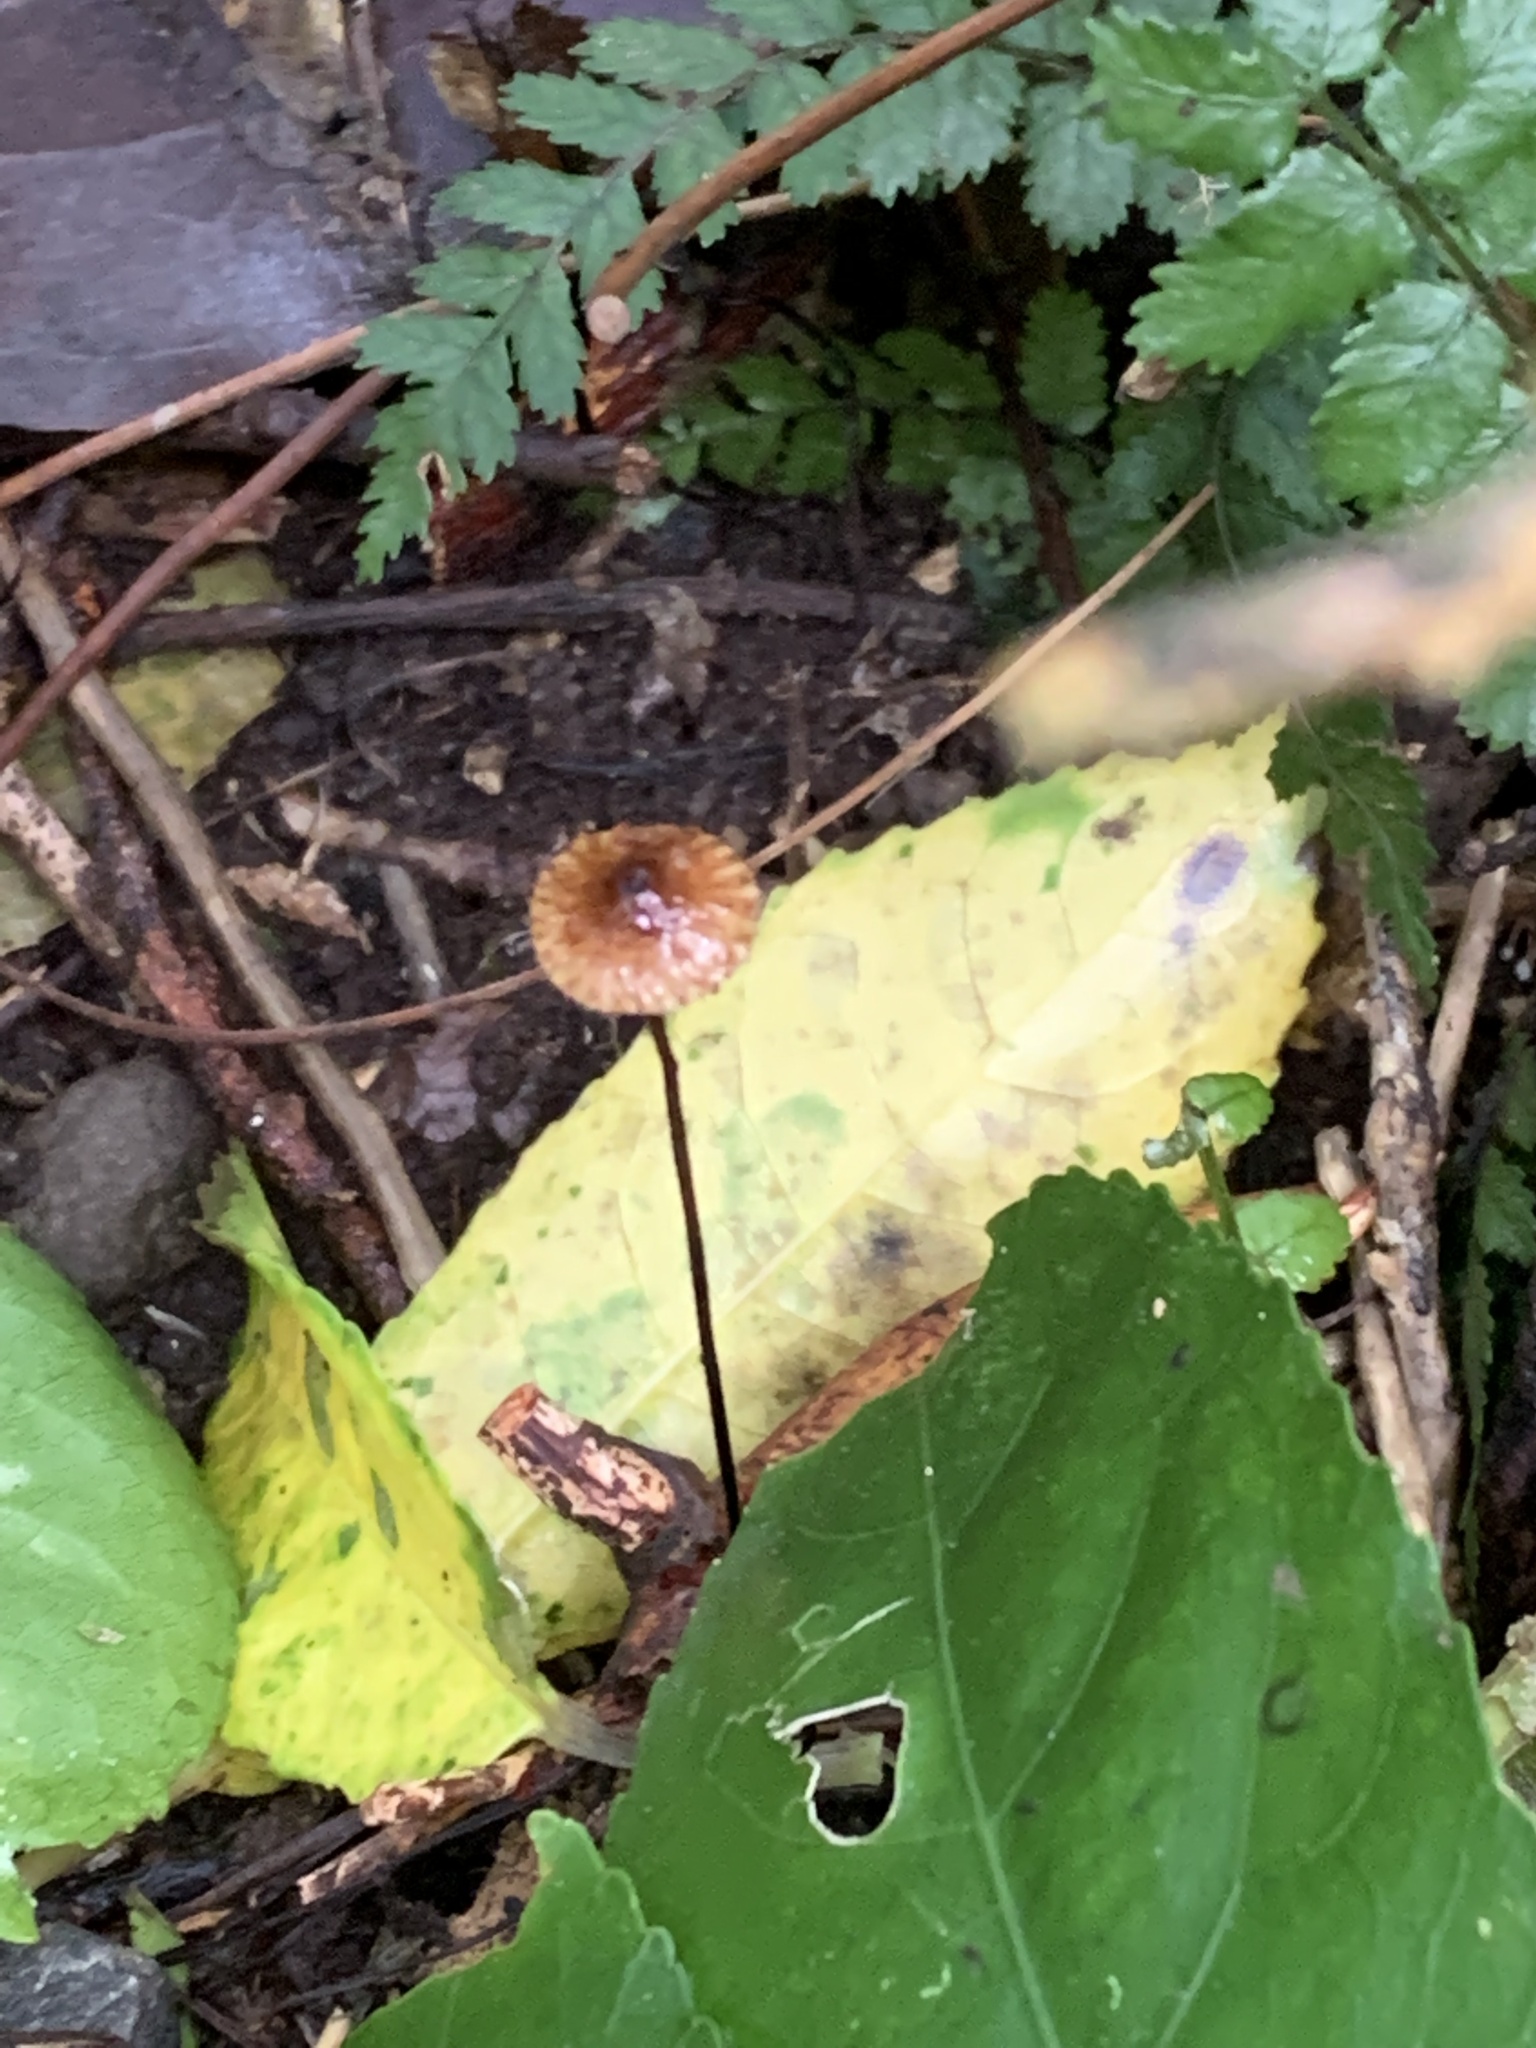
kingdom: Fungi
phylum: Basidiomycota
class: Agaricomycetes
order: Agaricales
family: Marasmiaceae
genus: Crinipellis
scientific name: Crinipellis procera
